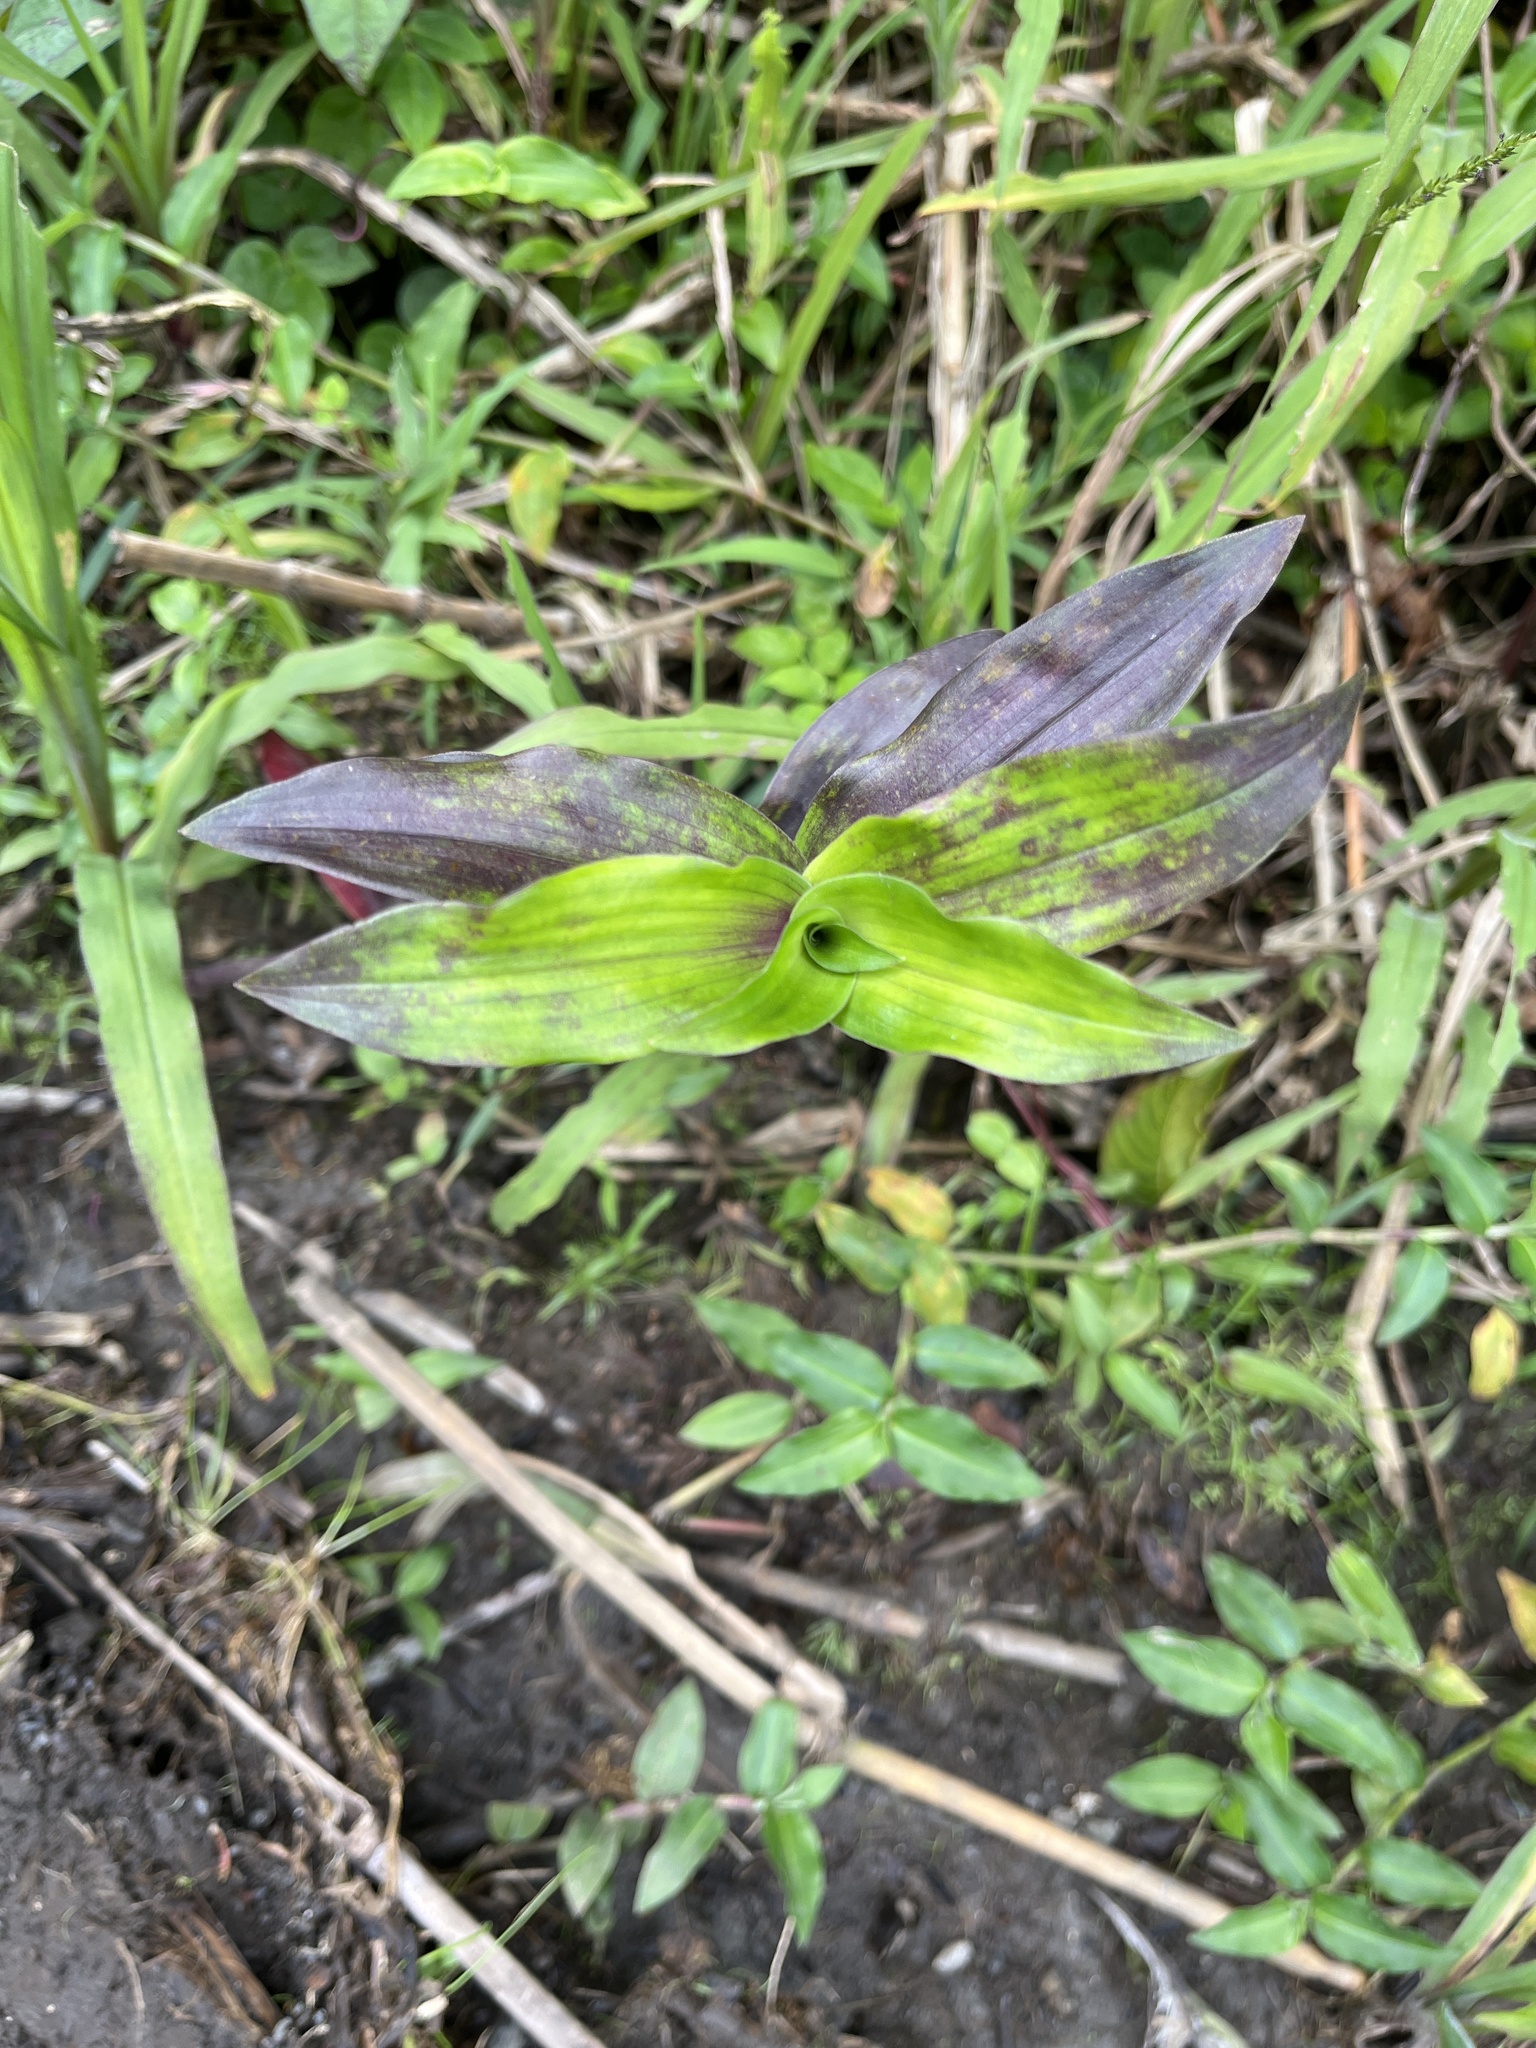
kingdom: Plantae
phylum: Tracheophyta
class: Liliopsida
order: Commelinales
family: Commelinaceae
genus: Callisia
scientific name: Callisia serrulata
